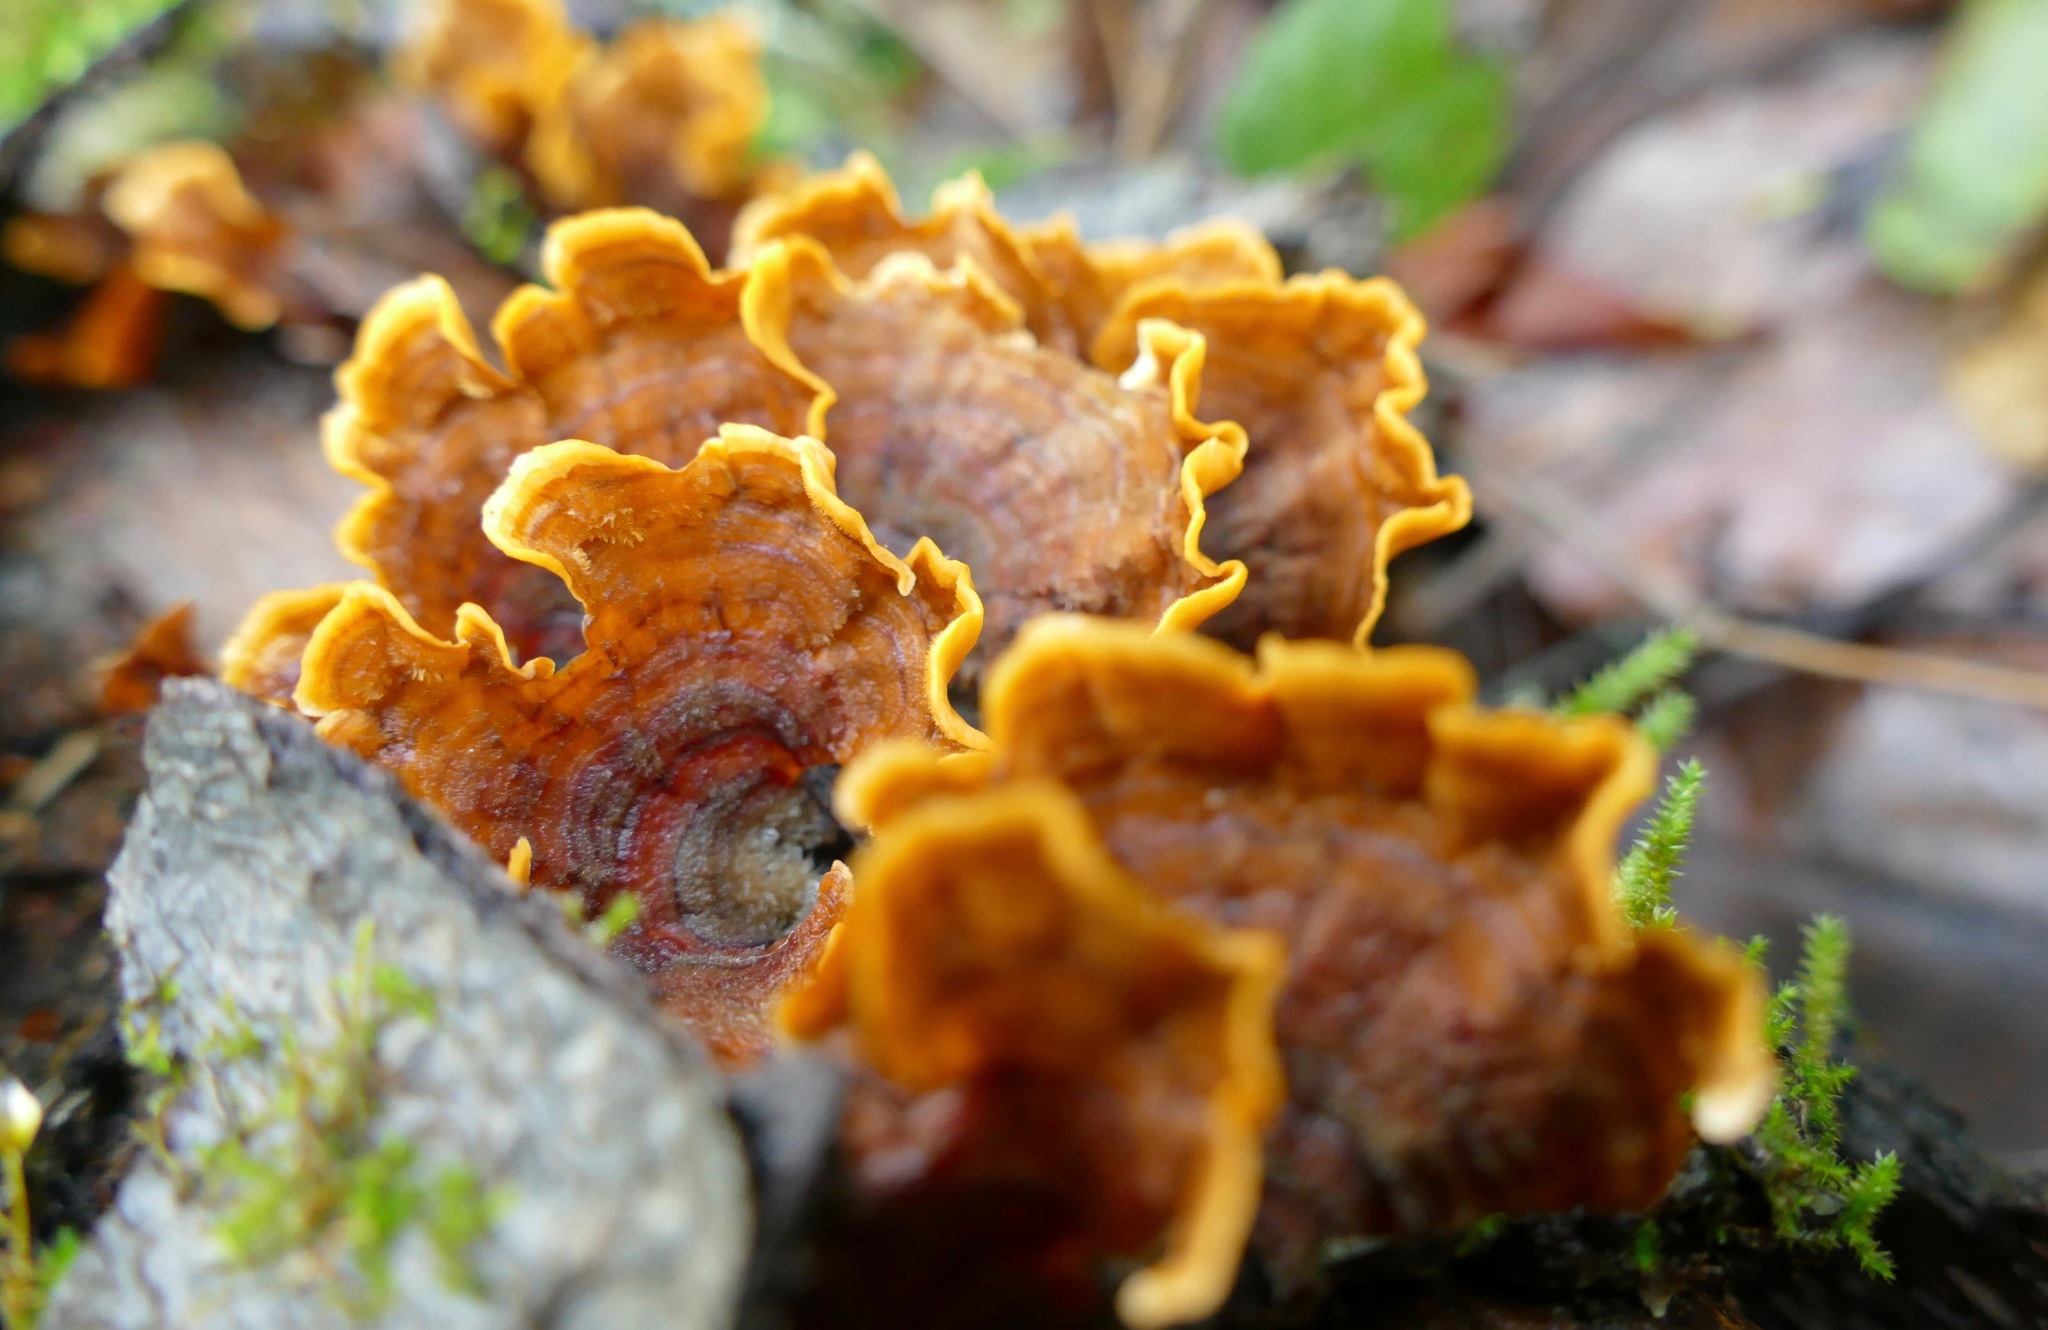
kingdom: Fungi
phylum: Basidiomycota
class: Agaricomycetes
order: Russulales
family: Stereaceae
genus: Stereum
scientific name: Stereum hirsutum
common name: Hairy curtain crust
